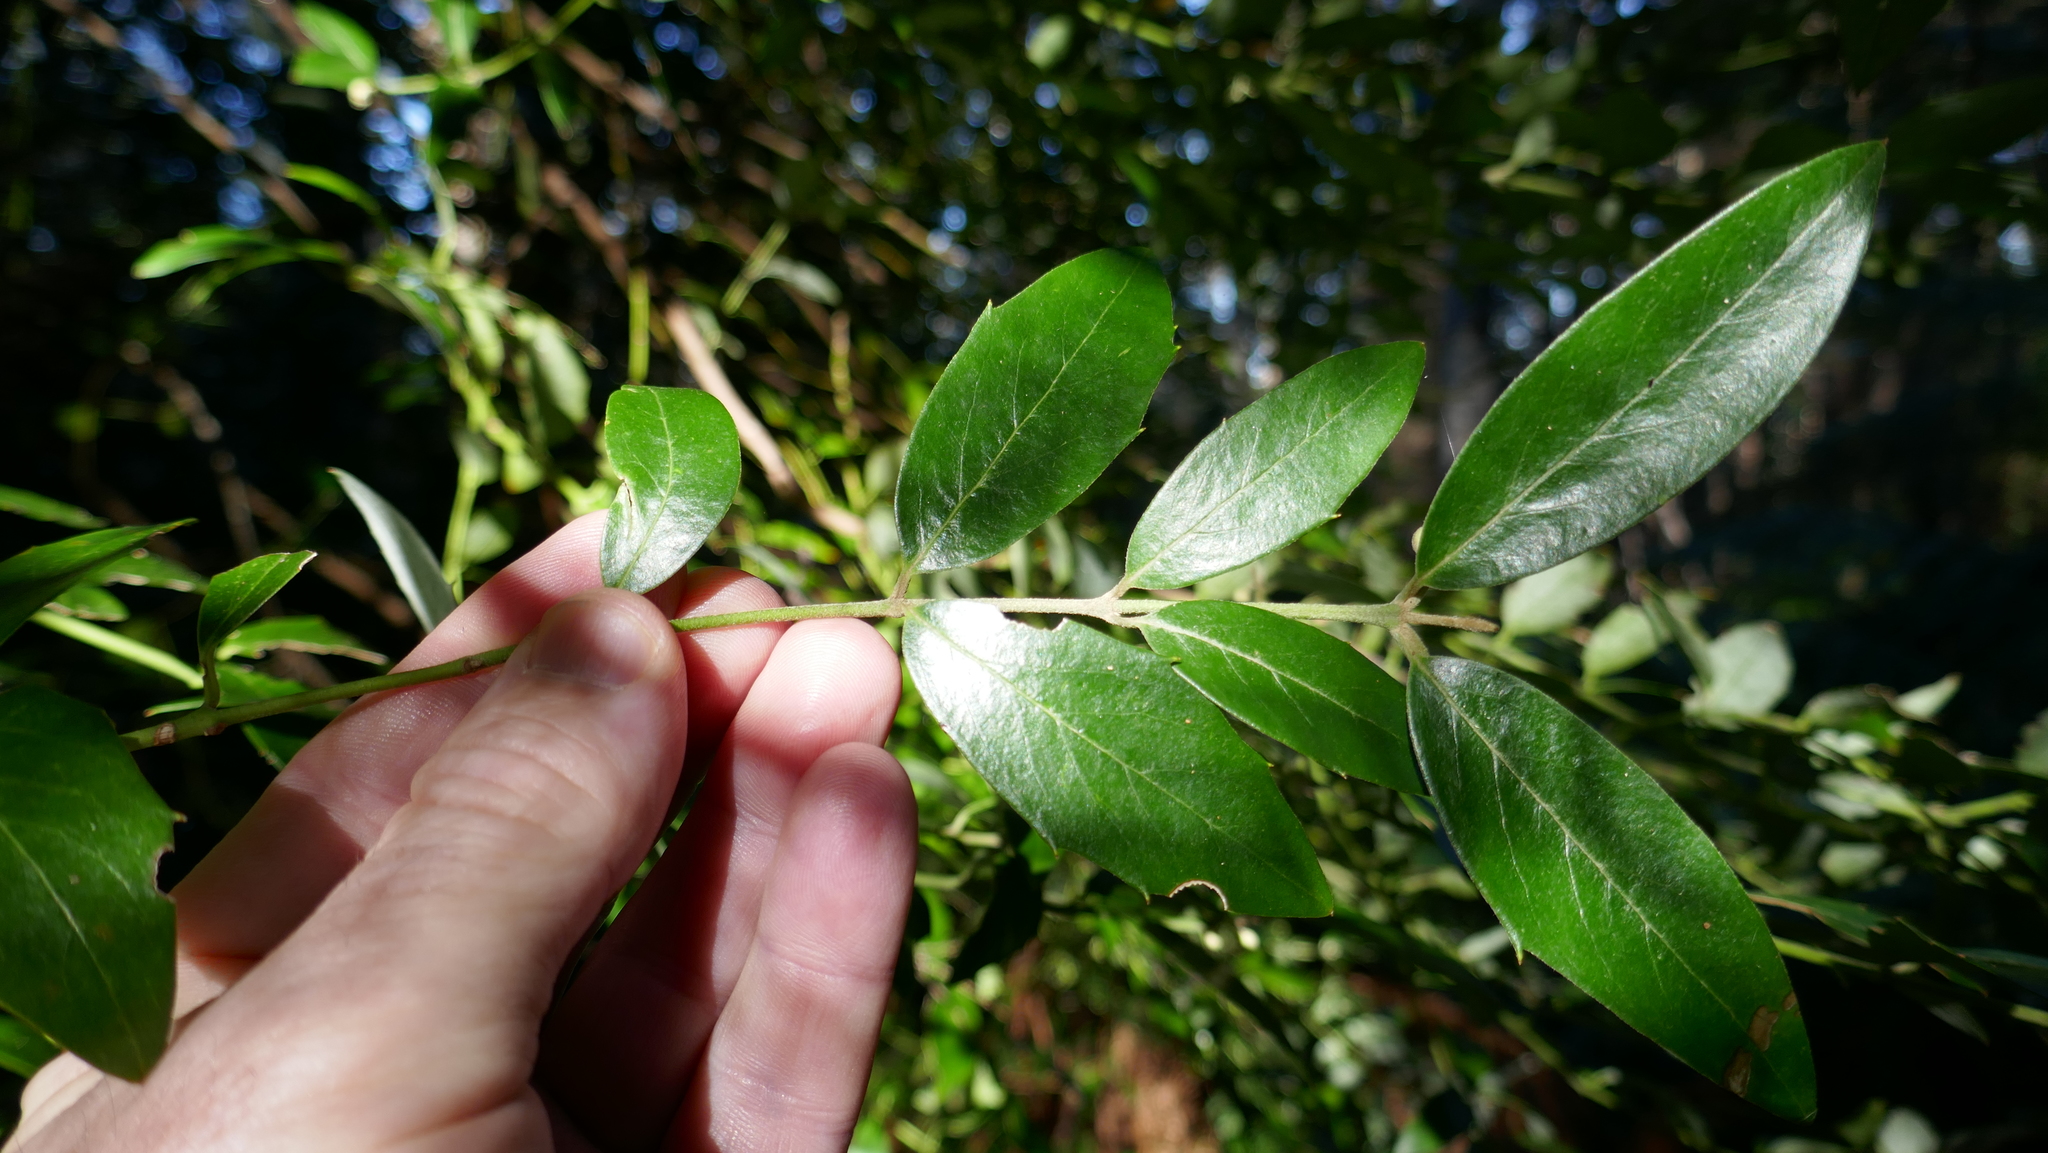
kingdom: Plantae
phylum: Tracheophyta
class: Magnoliopsida
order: Laurales
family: Atherospermataceae
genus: Atherosperma
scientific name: Atherosperma moschatum
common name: Tasmanian-sassafras
